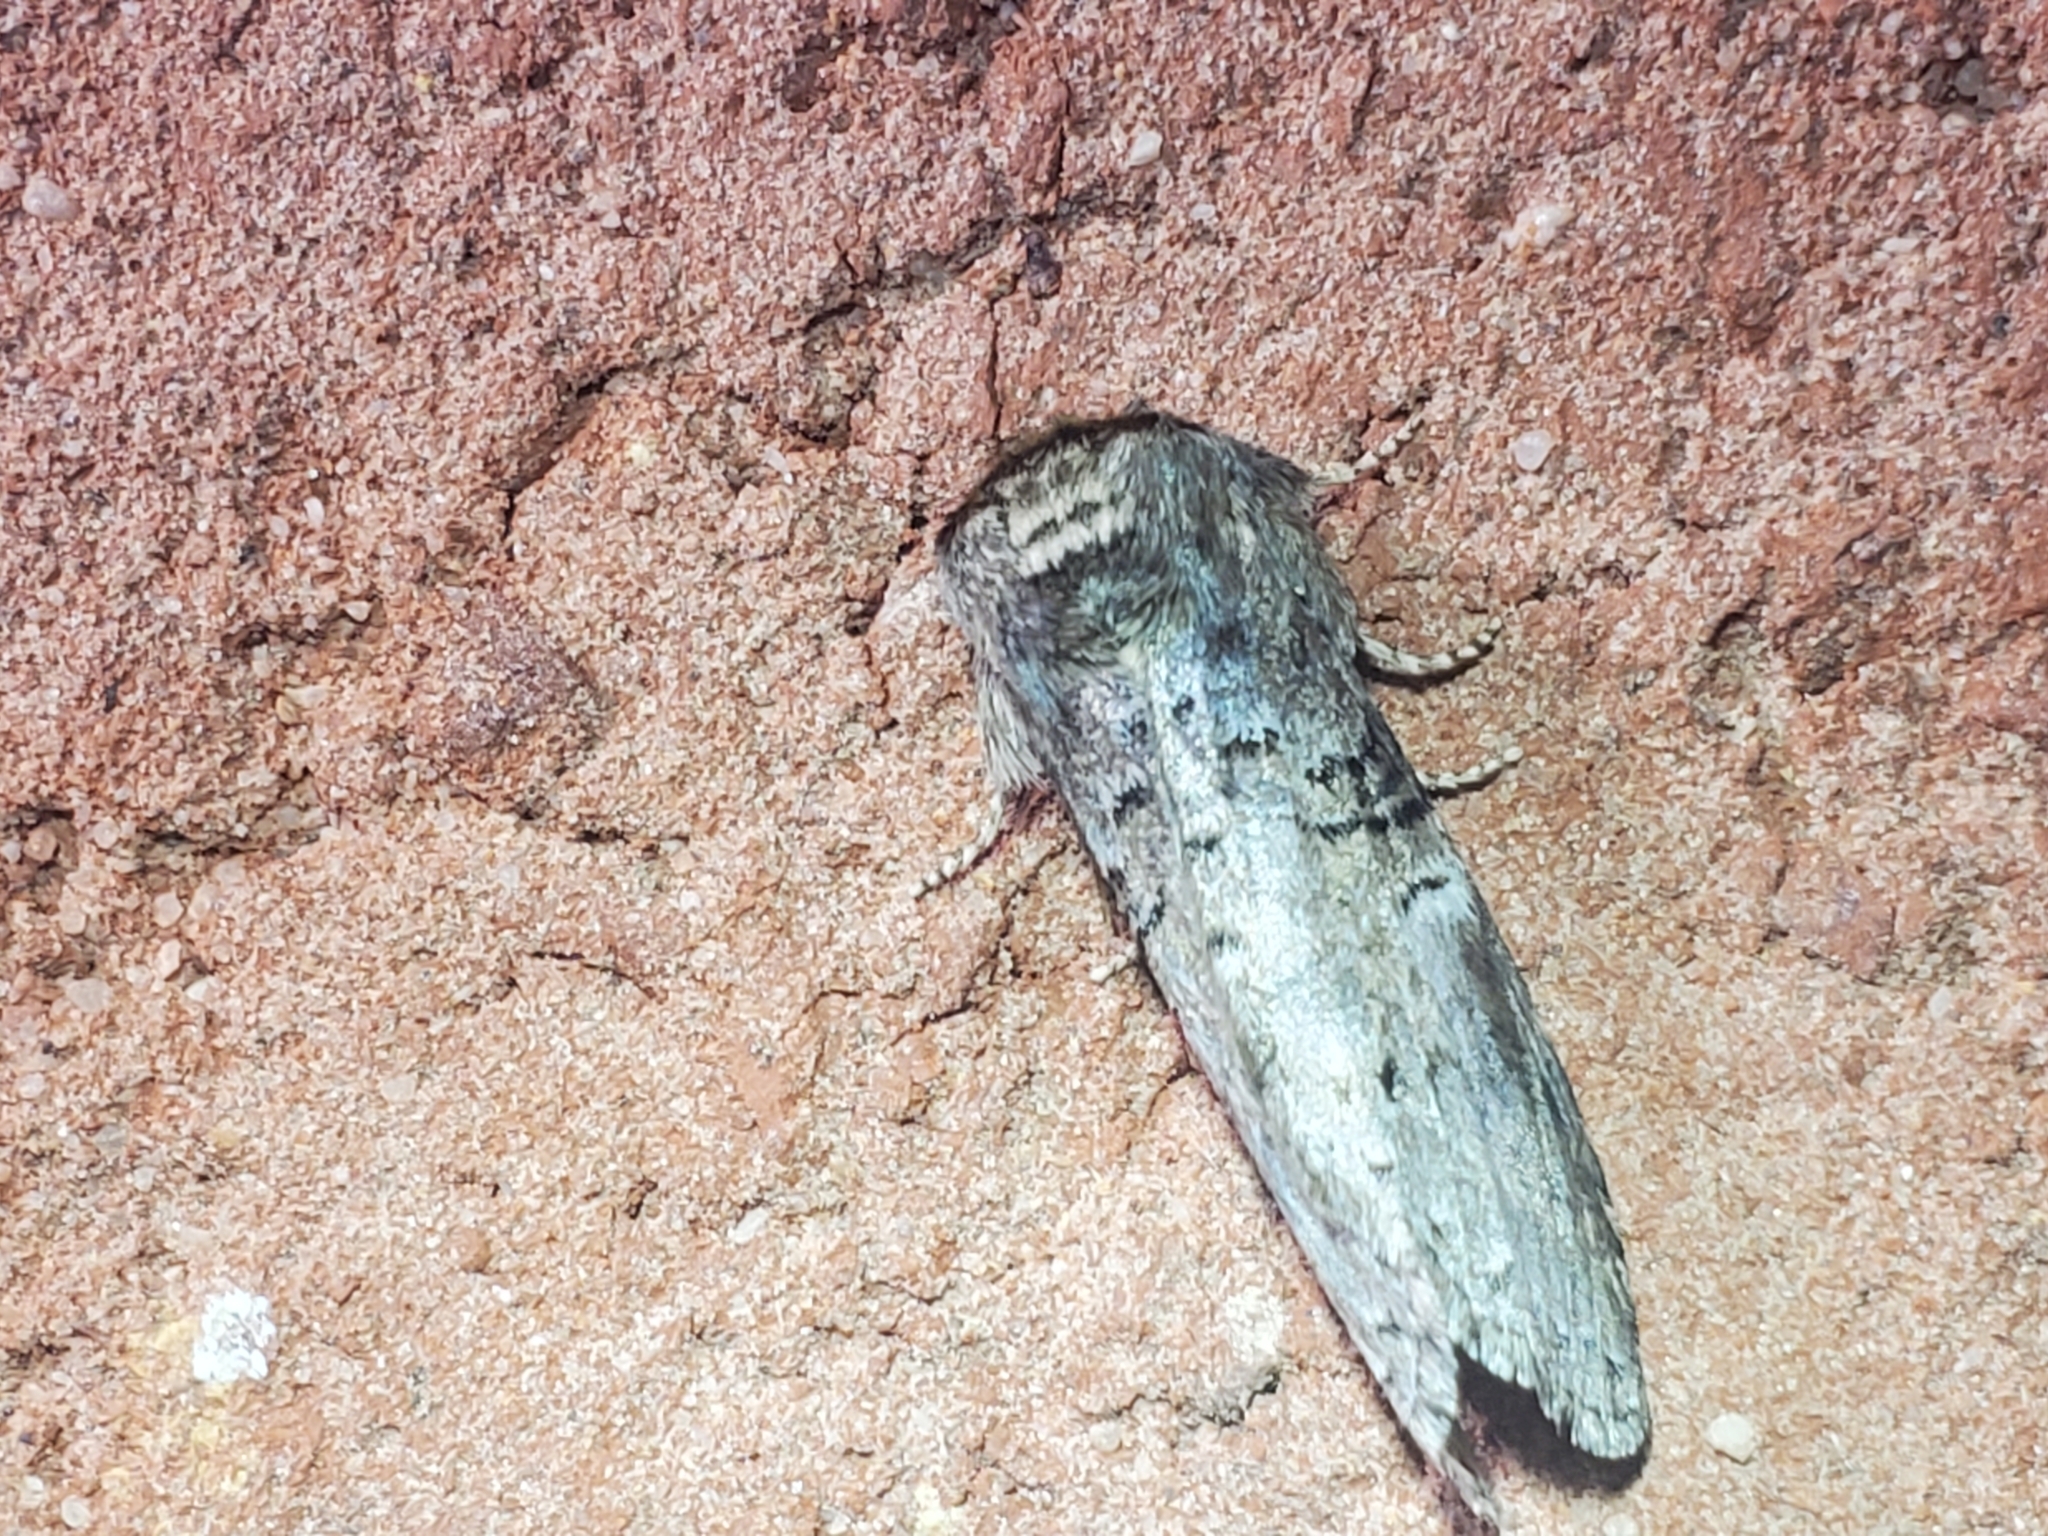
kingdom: Animalia
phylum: Arthropoda
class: Insecta
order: Lepidoptera
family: Notodontidae
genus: Ellida
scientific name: Ellida caniplaga
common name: Linden prominent
